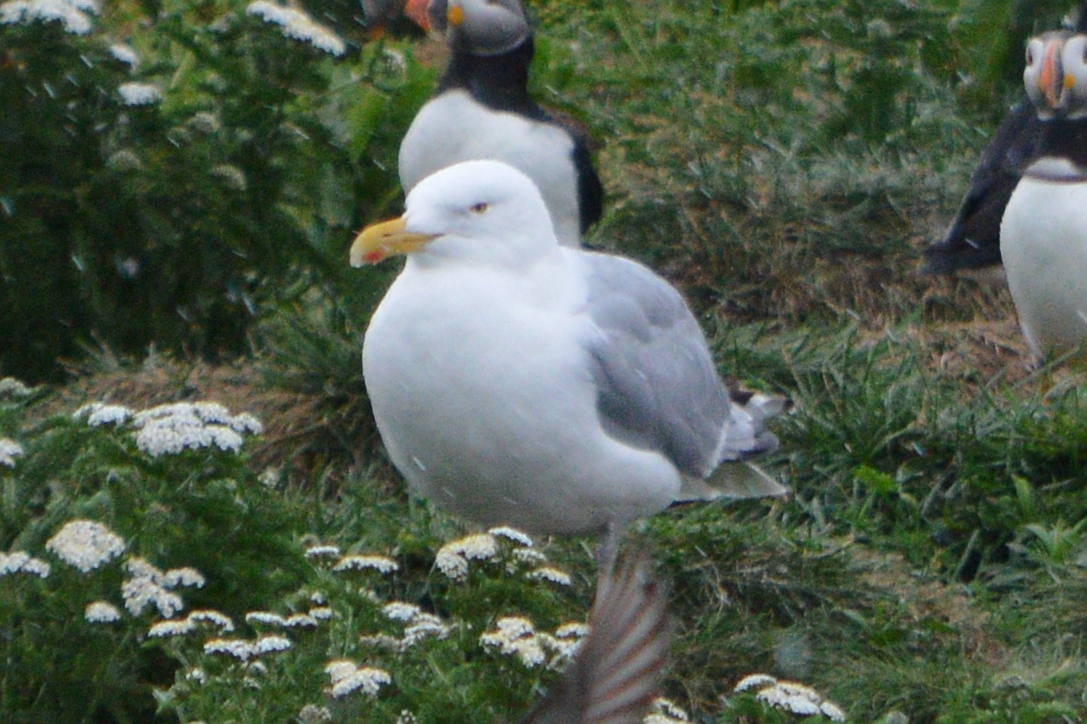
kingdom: Animalia
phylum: Chordata
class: Aves
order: Charadriiformes
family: Laridae
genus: Larus
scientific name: Larus argentatus
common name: Herring gull
